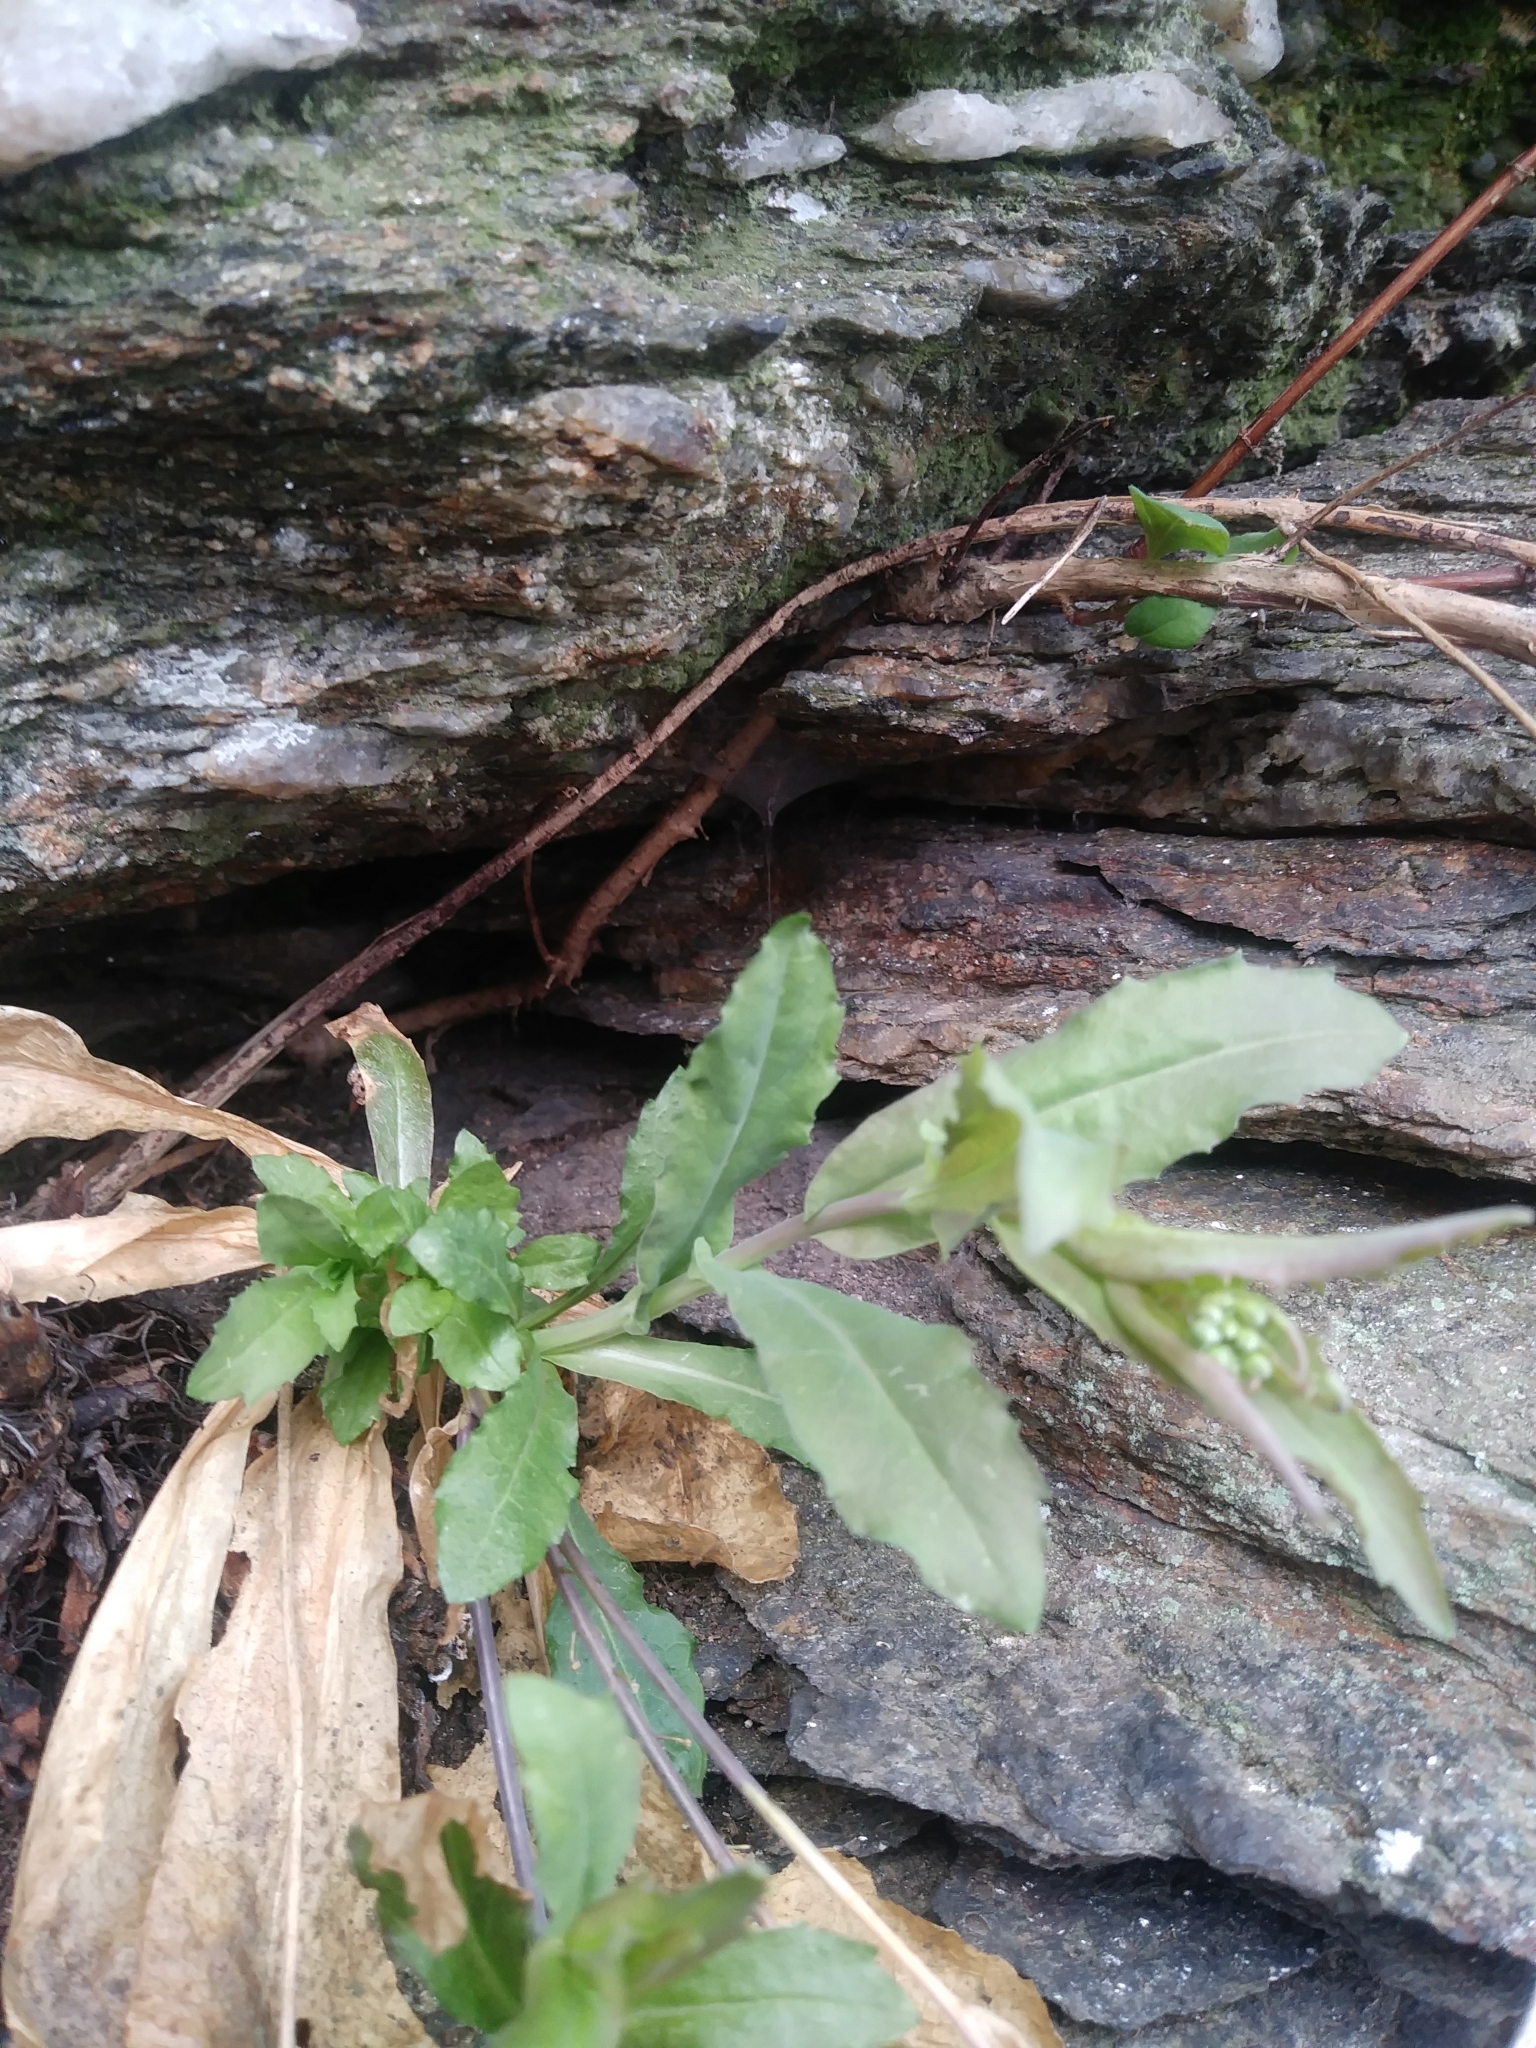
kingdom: Plantae
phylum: Tracheophyta
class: Magnoliopsida
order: Brassicales
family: Brassicaceae
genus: Borodinia
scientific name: Borodinia laevigata
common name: Smooth rockcress
